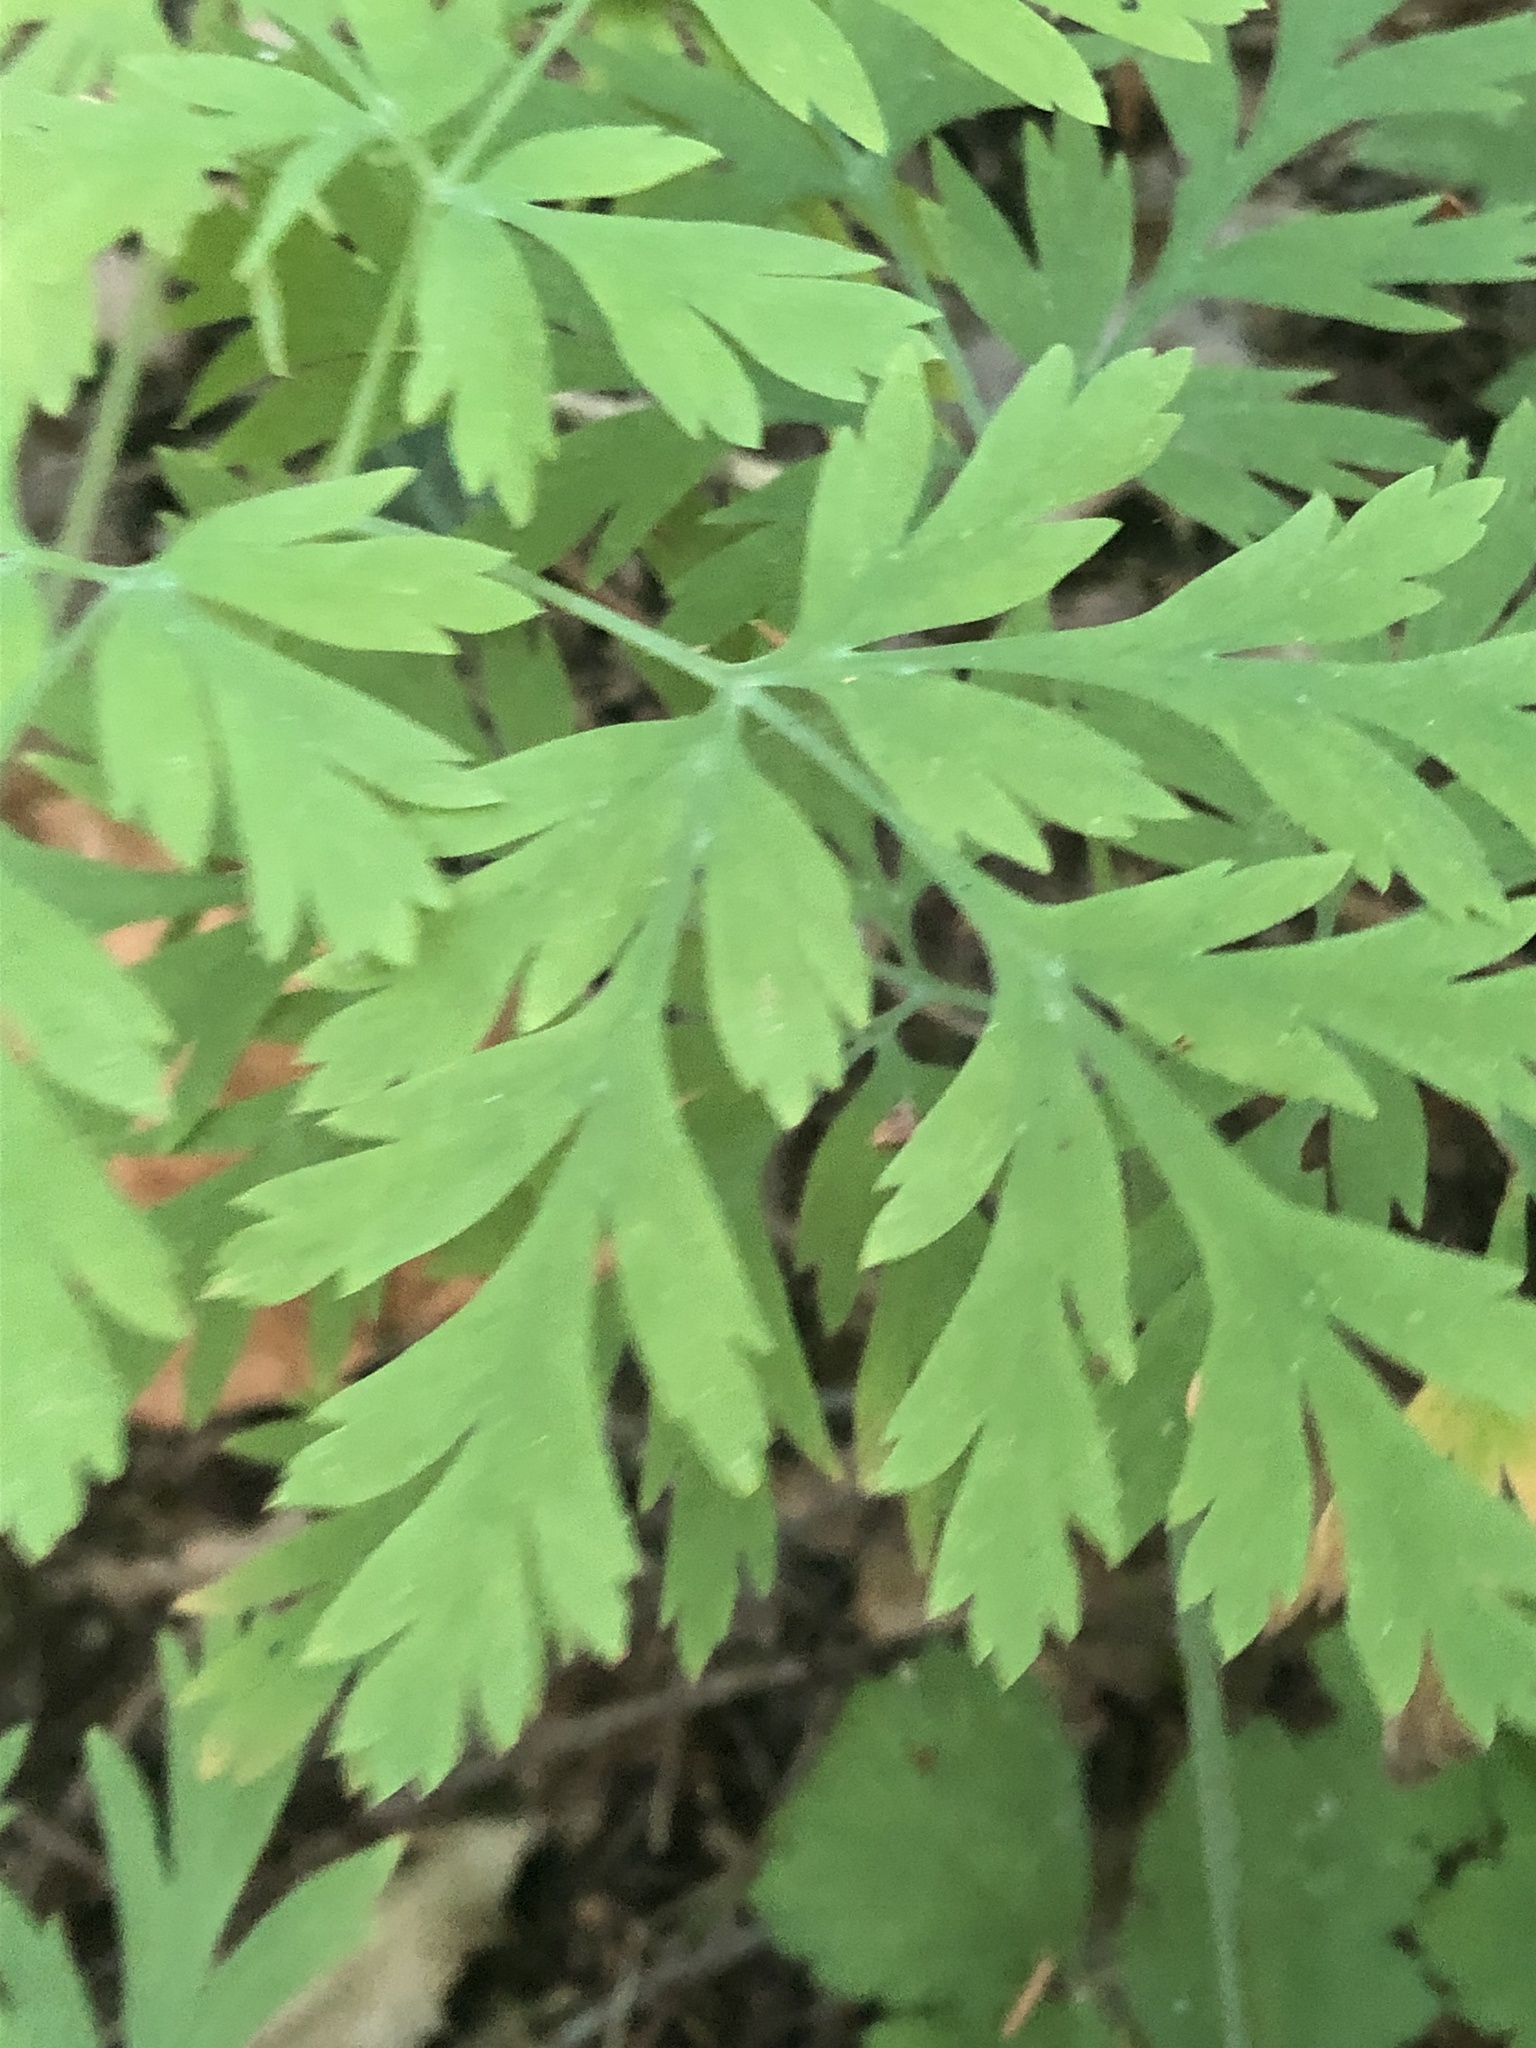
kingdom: Plantae
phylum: Tracheophyta
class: Magnoliopsida
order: Ranunculales
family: Papaveraceae
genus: Dicentra
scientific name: Dicentra formosa
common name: Bleeding-heart
